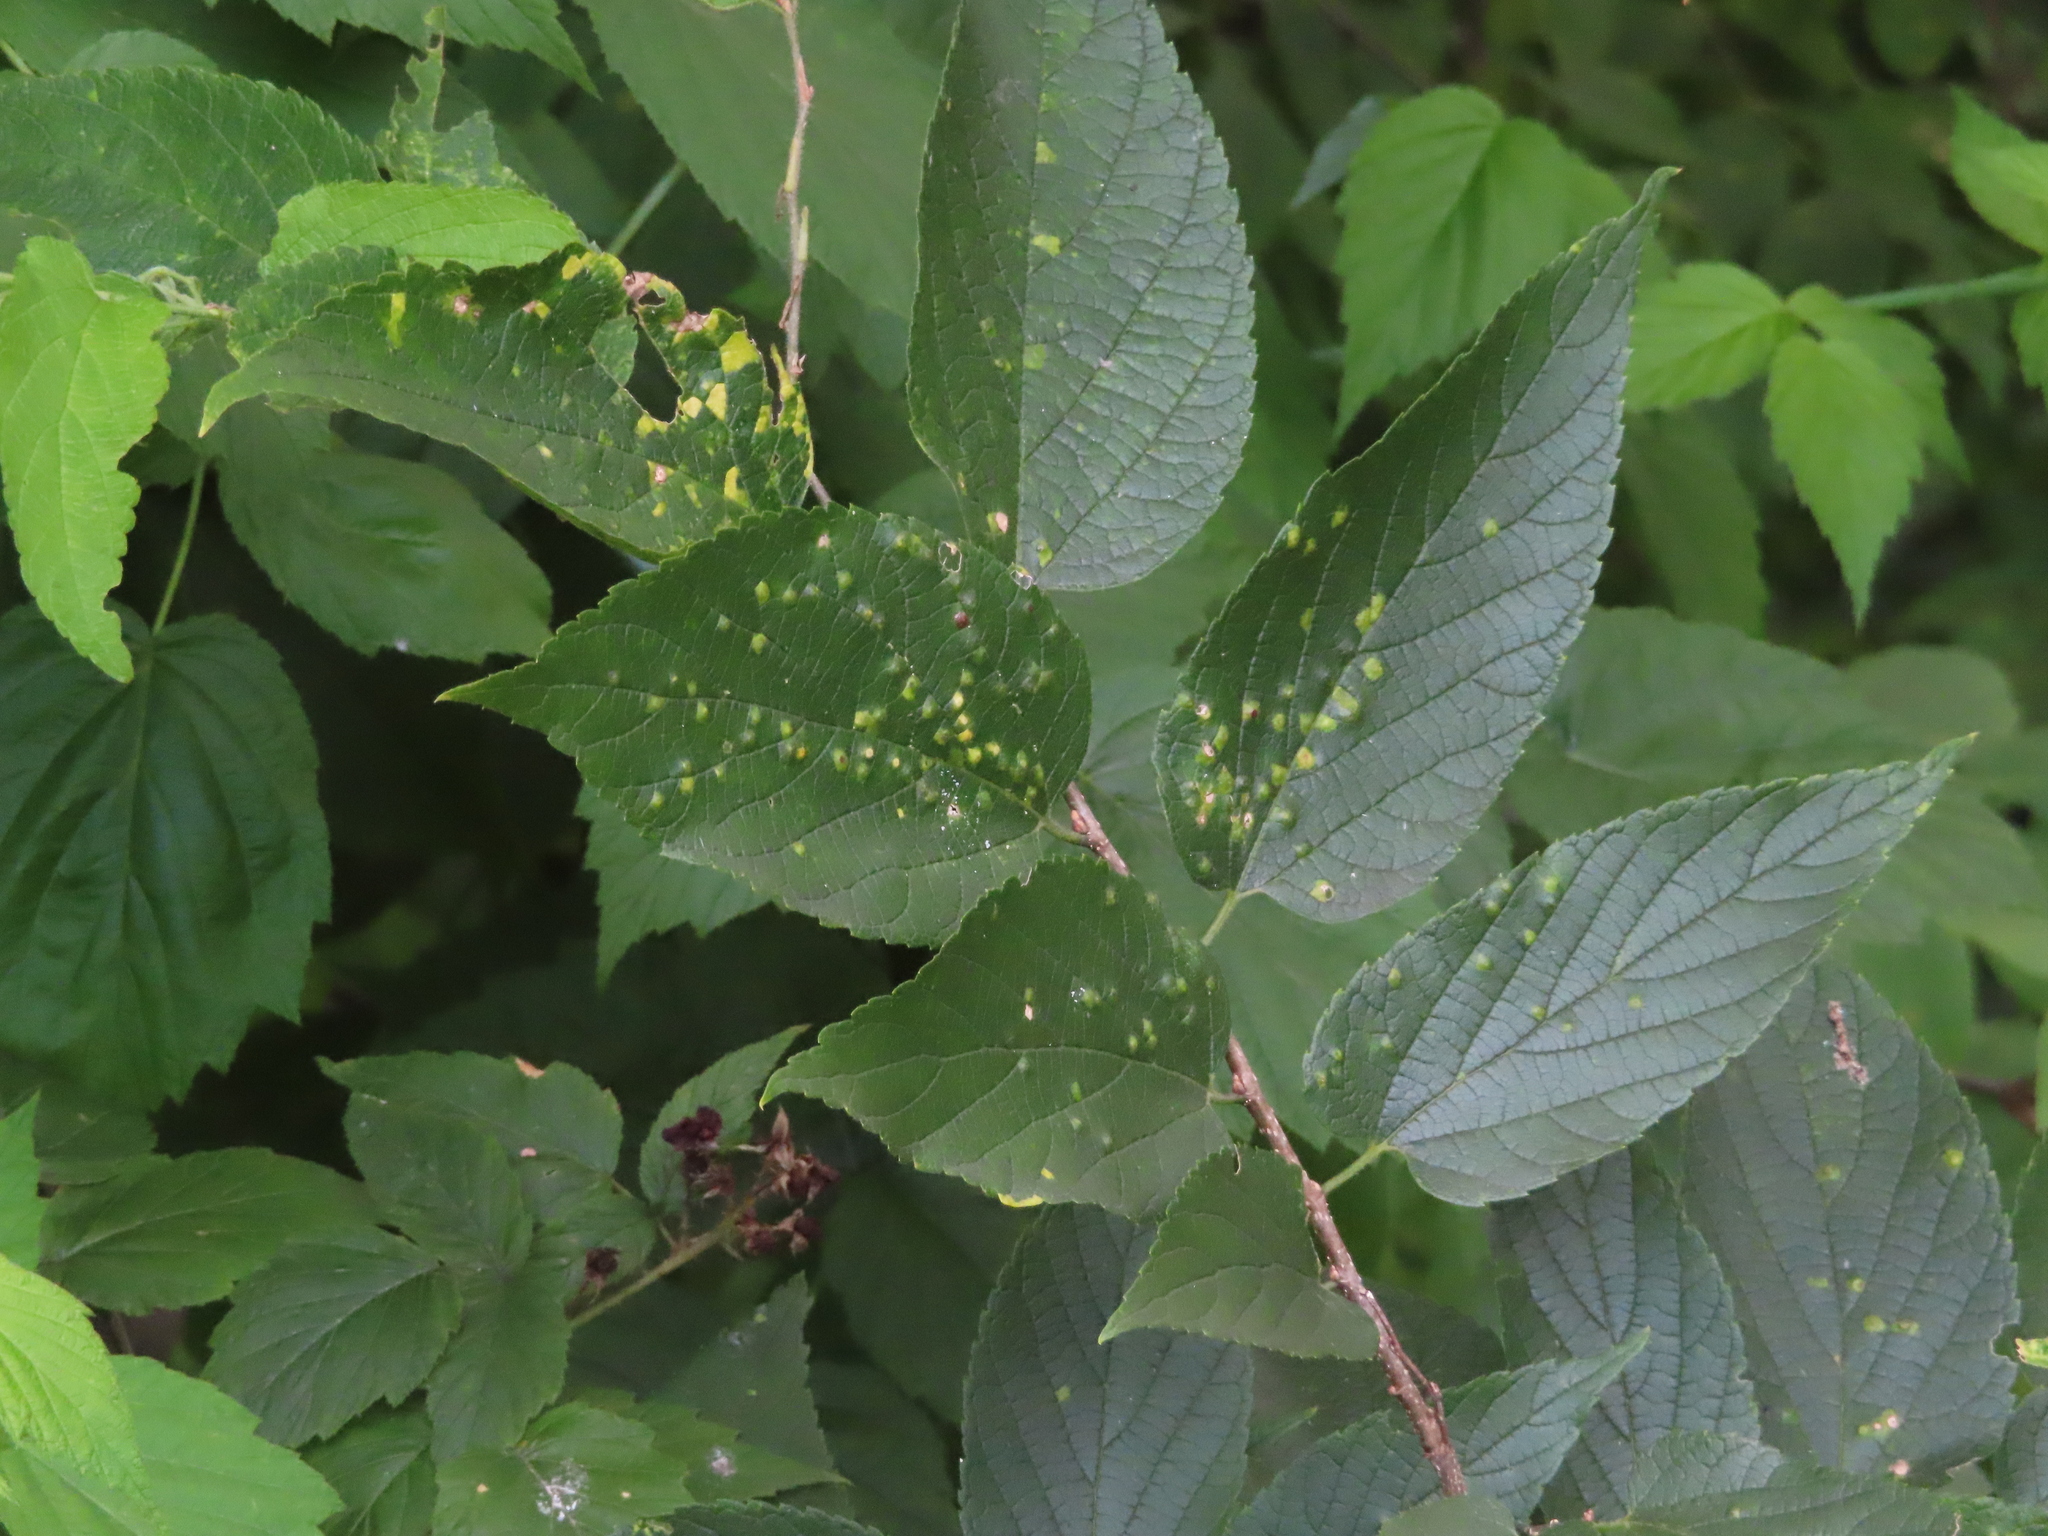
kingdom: Animalia
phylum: Arthropoda
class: Insecta
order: Hemiptera
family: Aphalaridae
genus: Pachypsylla
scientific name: Pachypsylla celtidisvesicula
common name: Hackberry blister gall psyllid
